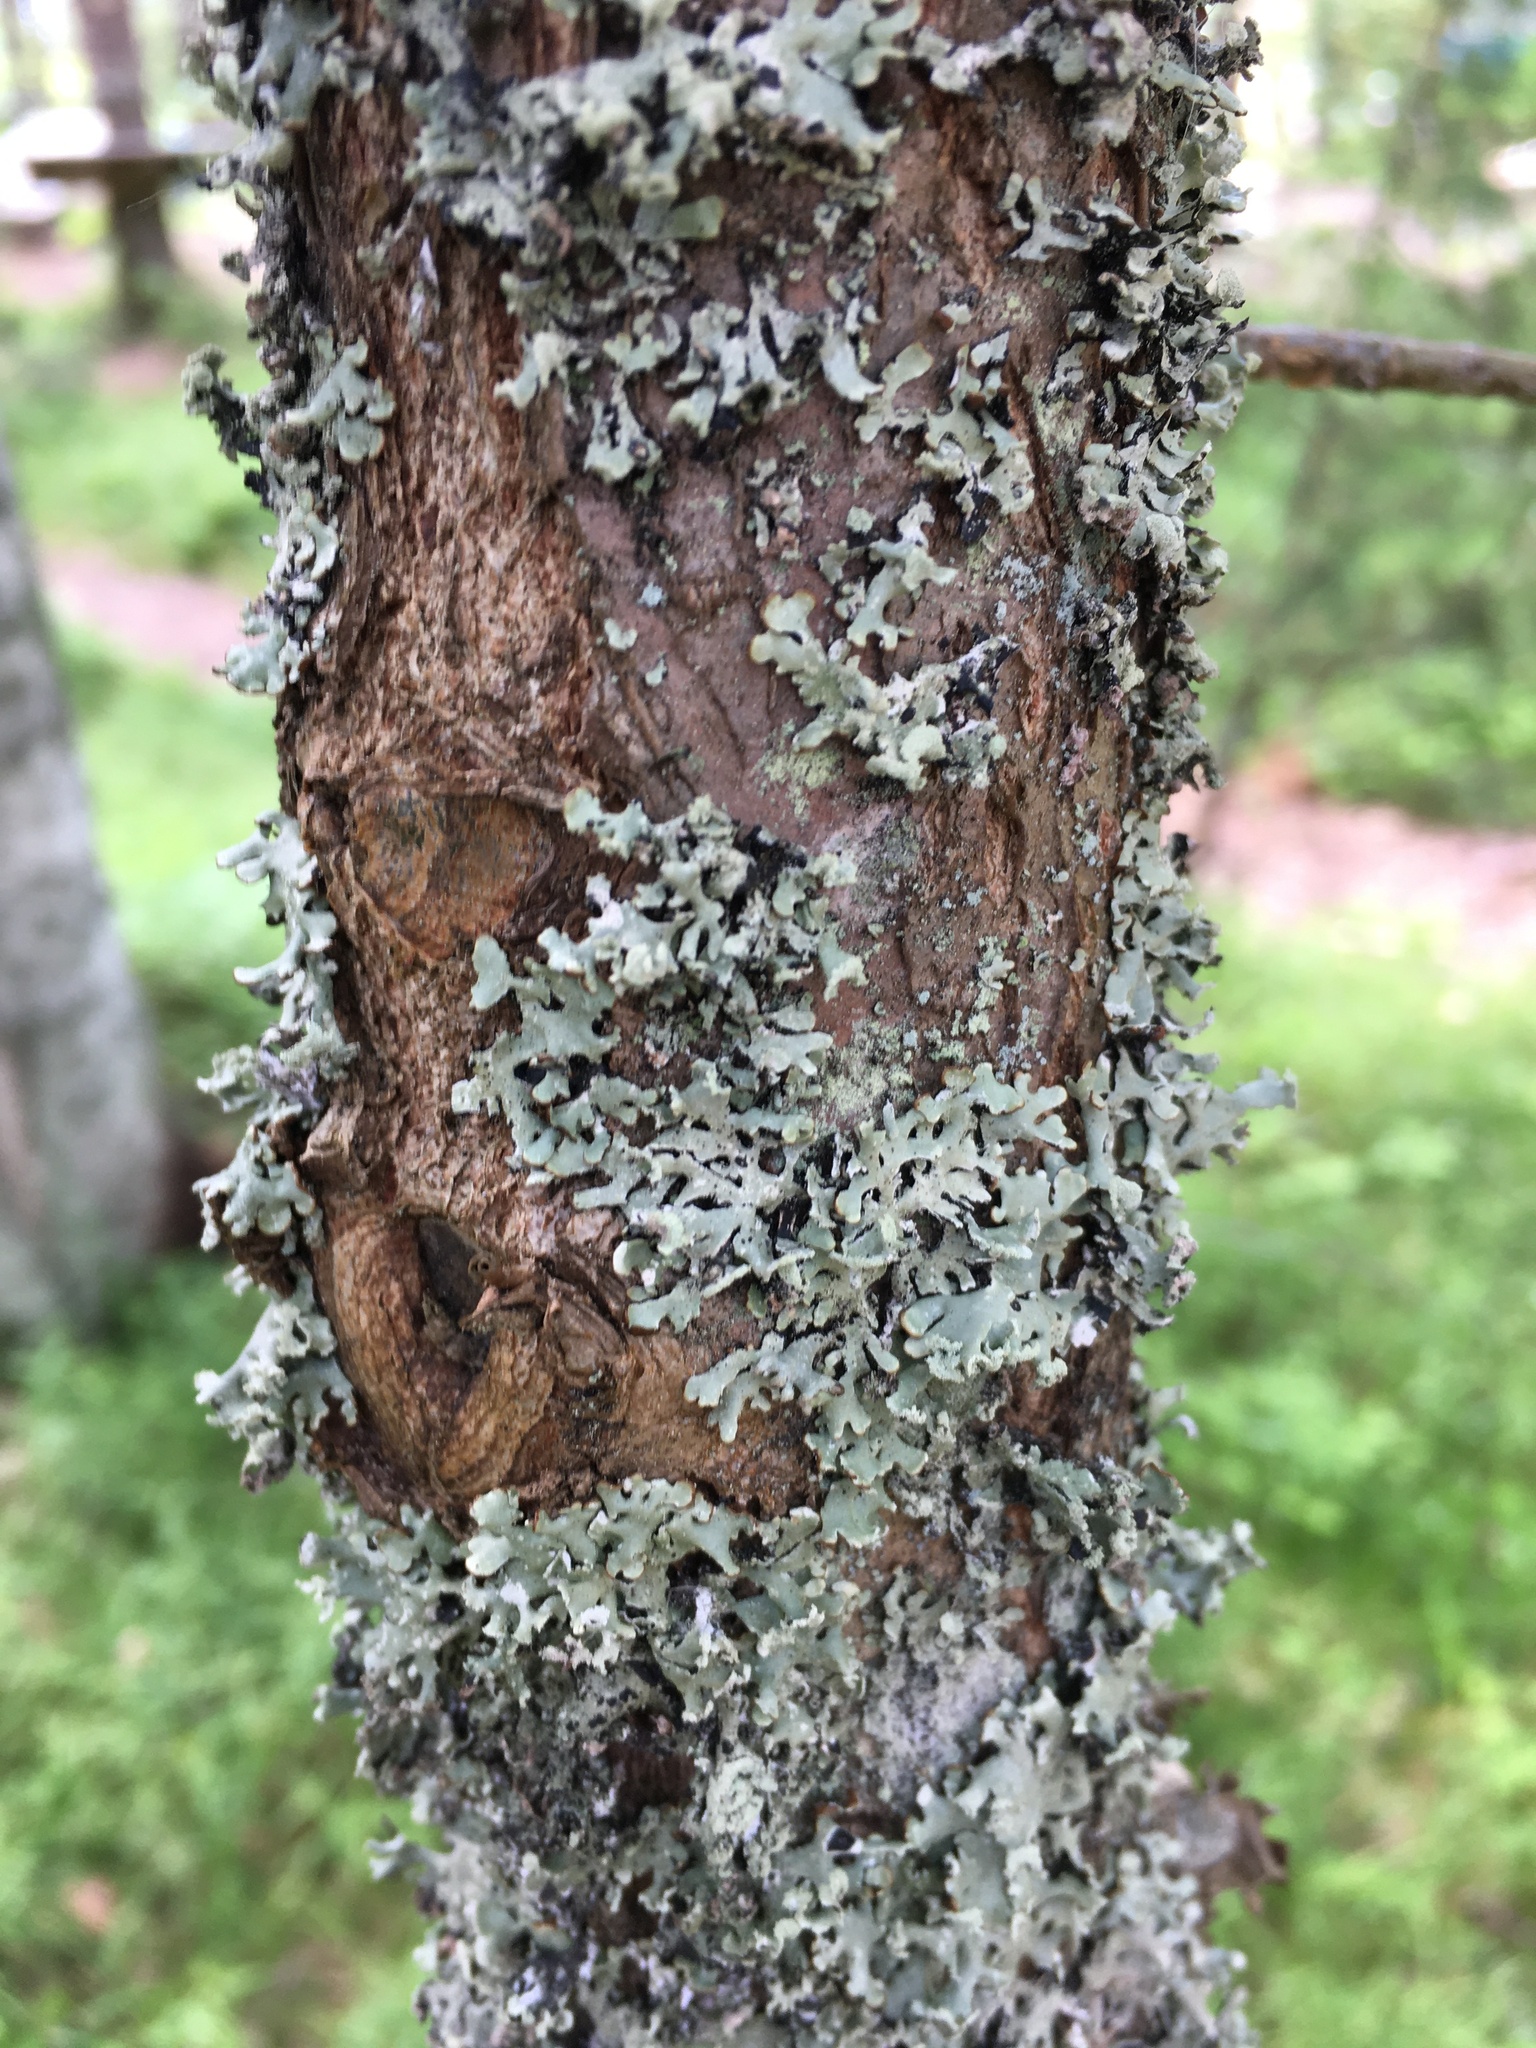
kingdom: Fungi
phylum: Ascomycota
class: Lecanoromycetes
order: Lecanorales
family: Parmeliaceae
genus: Hypogymnia
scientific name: Hypogymnia physodes
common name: Dark crottle
